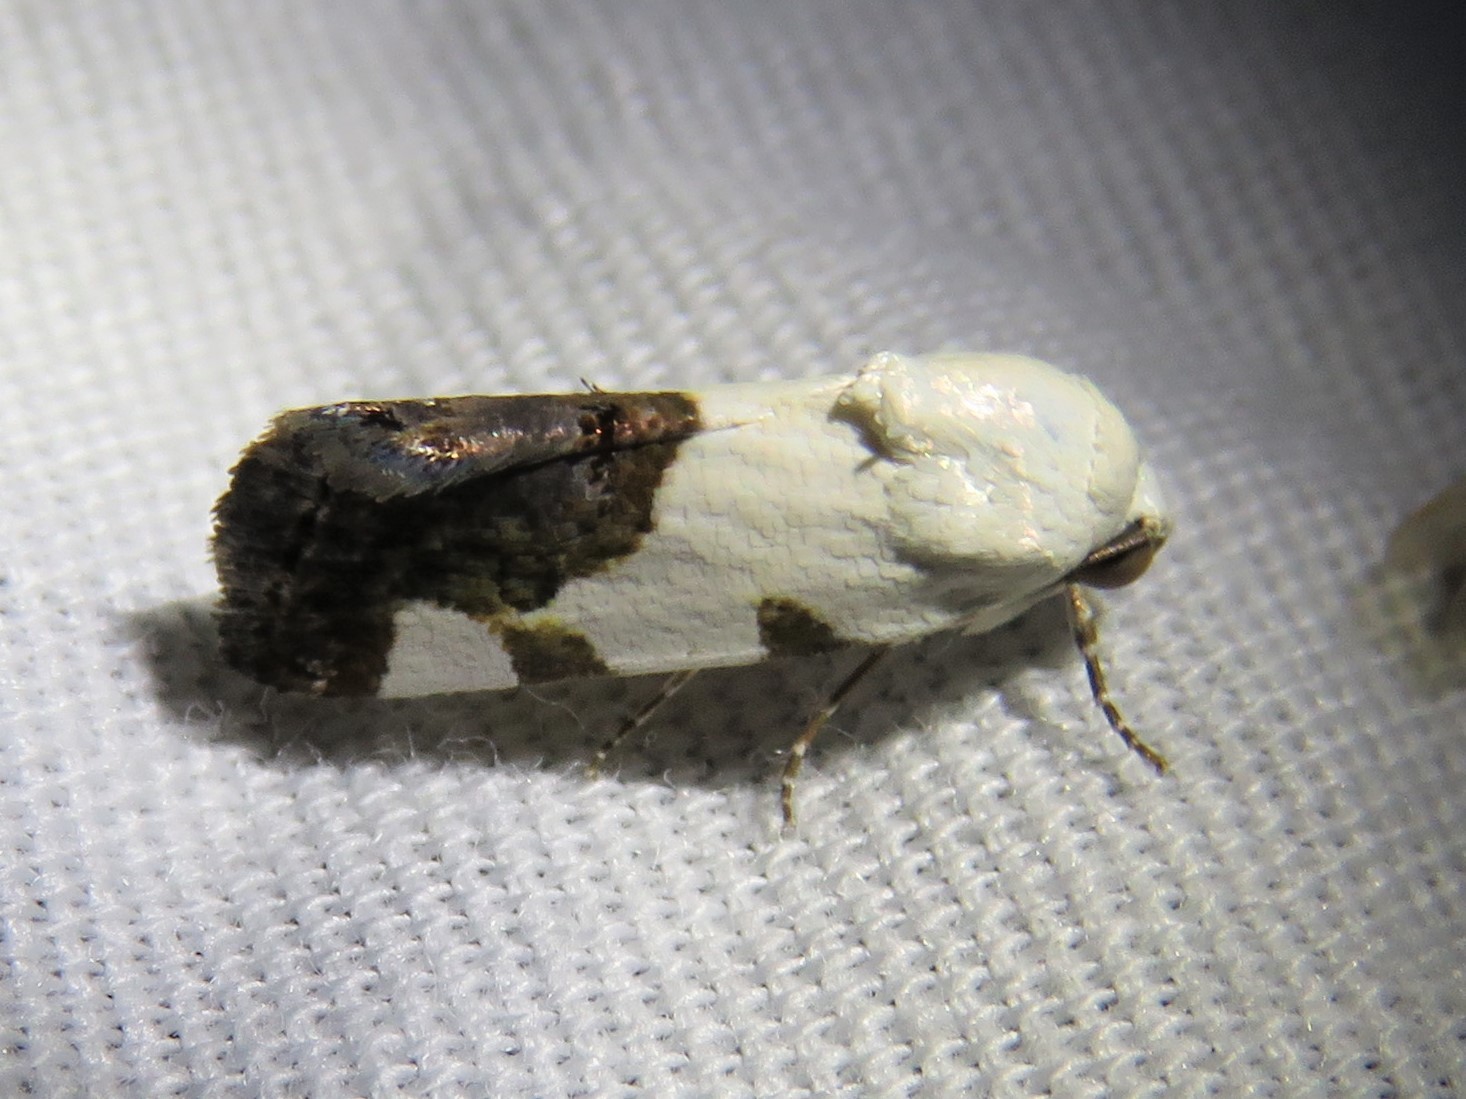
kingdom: Animalia
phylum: Arthropoda
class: Insecta
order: Lepidoptera
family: Noctuidae
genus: Acontia
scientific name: Acontia quadriplaga
